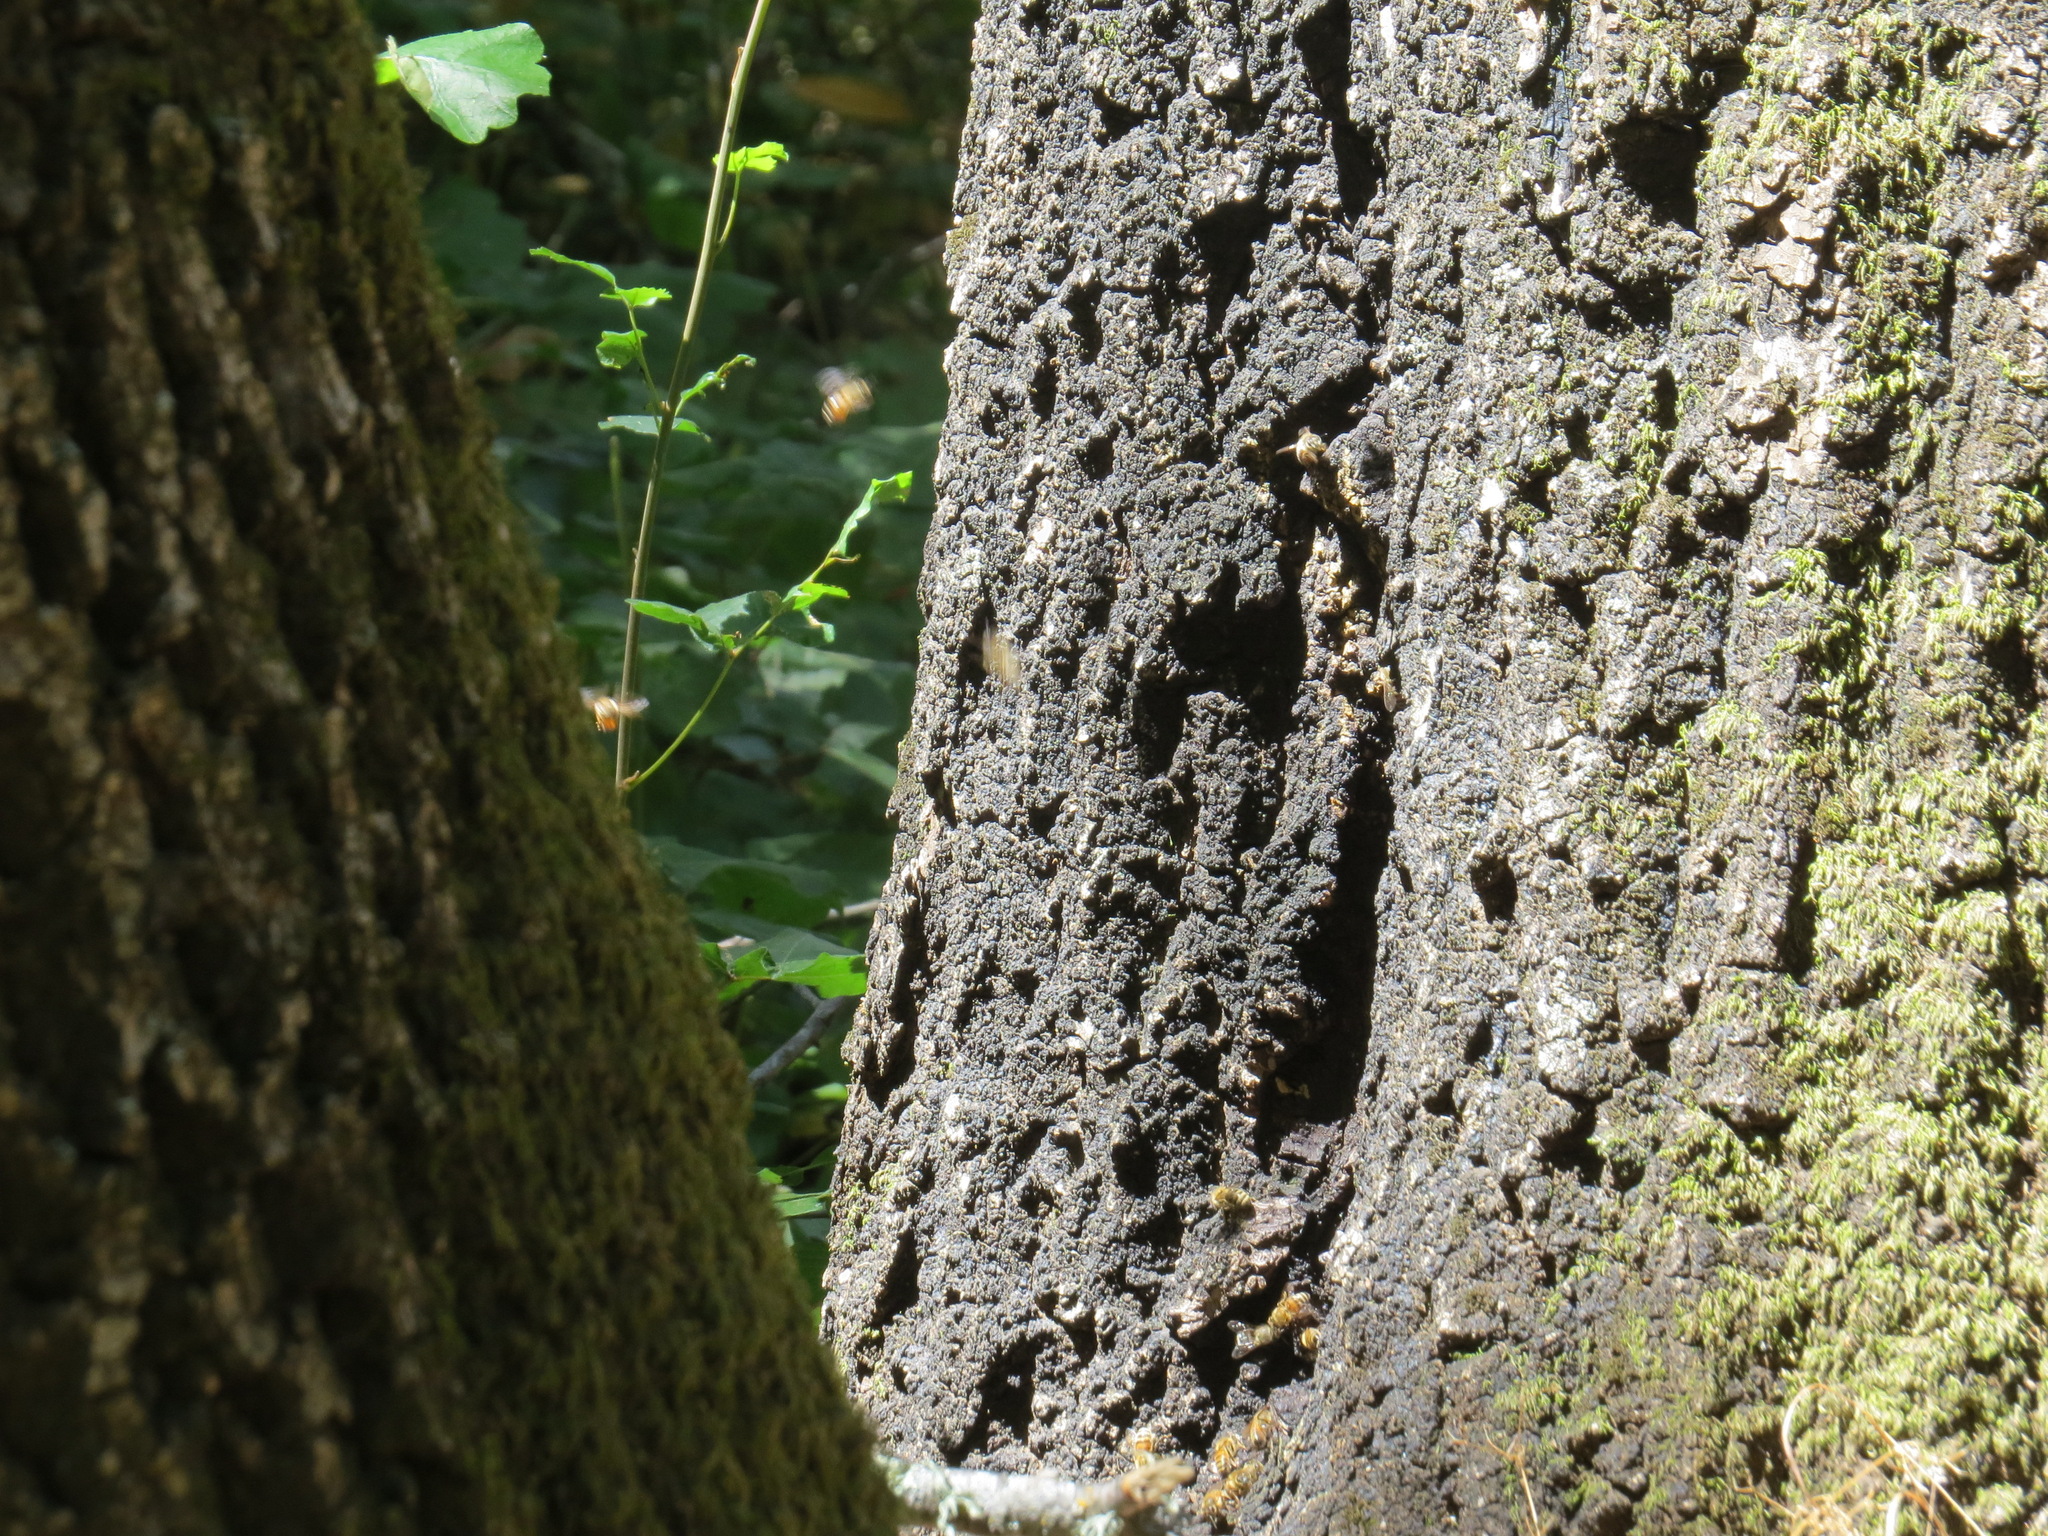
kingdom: Animalia
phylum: Arthropoda
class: Insecta
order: Hymenoptera
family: Apidae
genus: Apis
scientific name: Apis mellifera
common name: Honey bee
